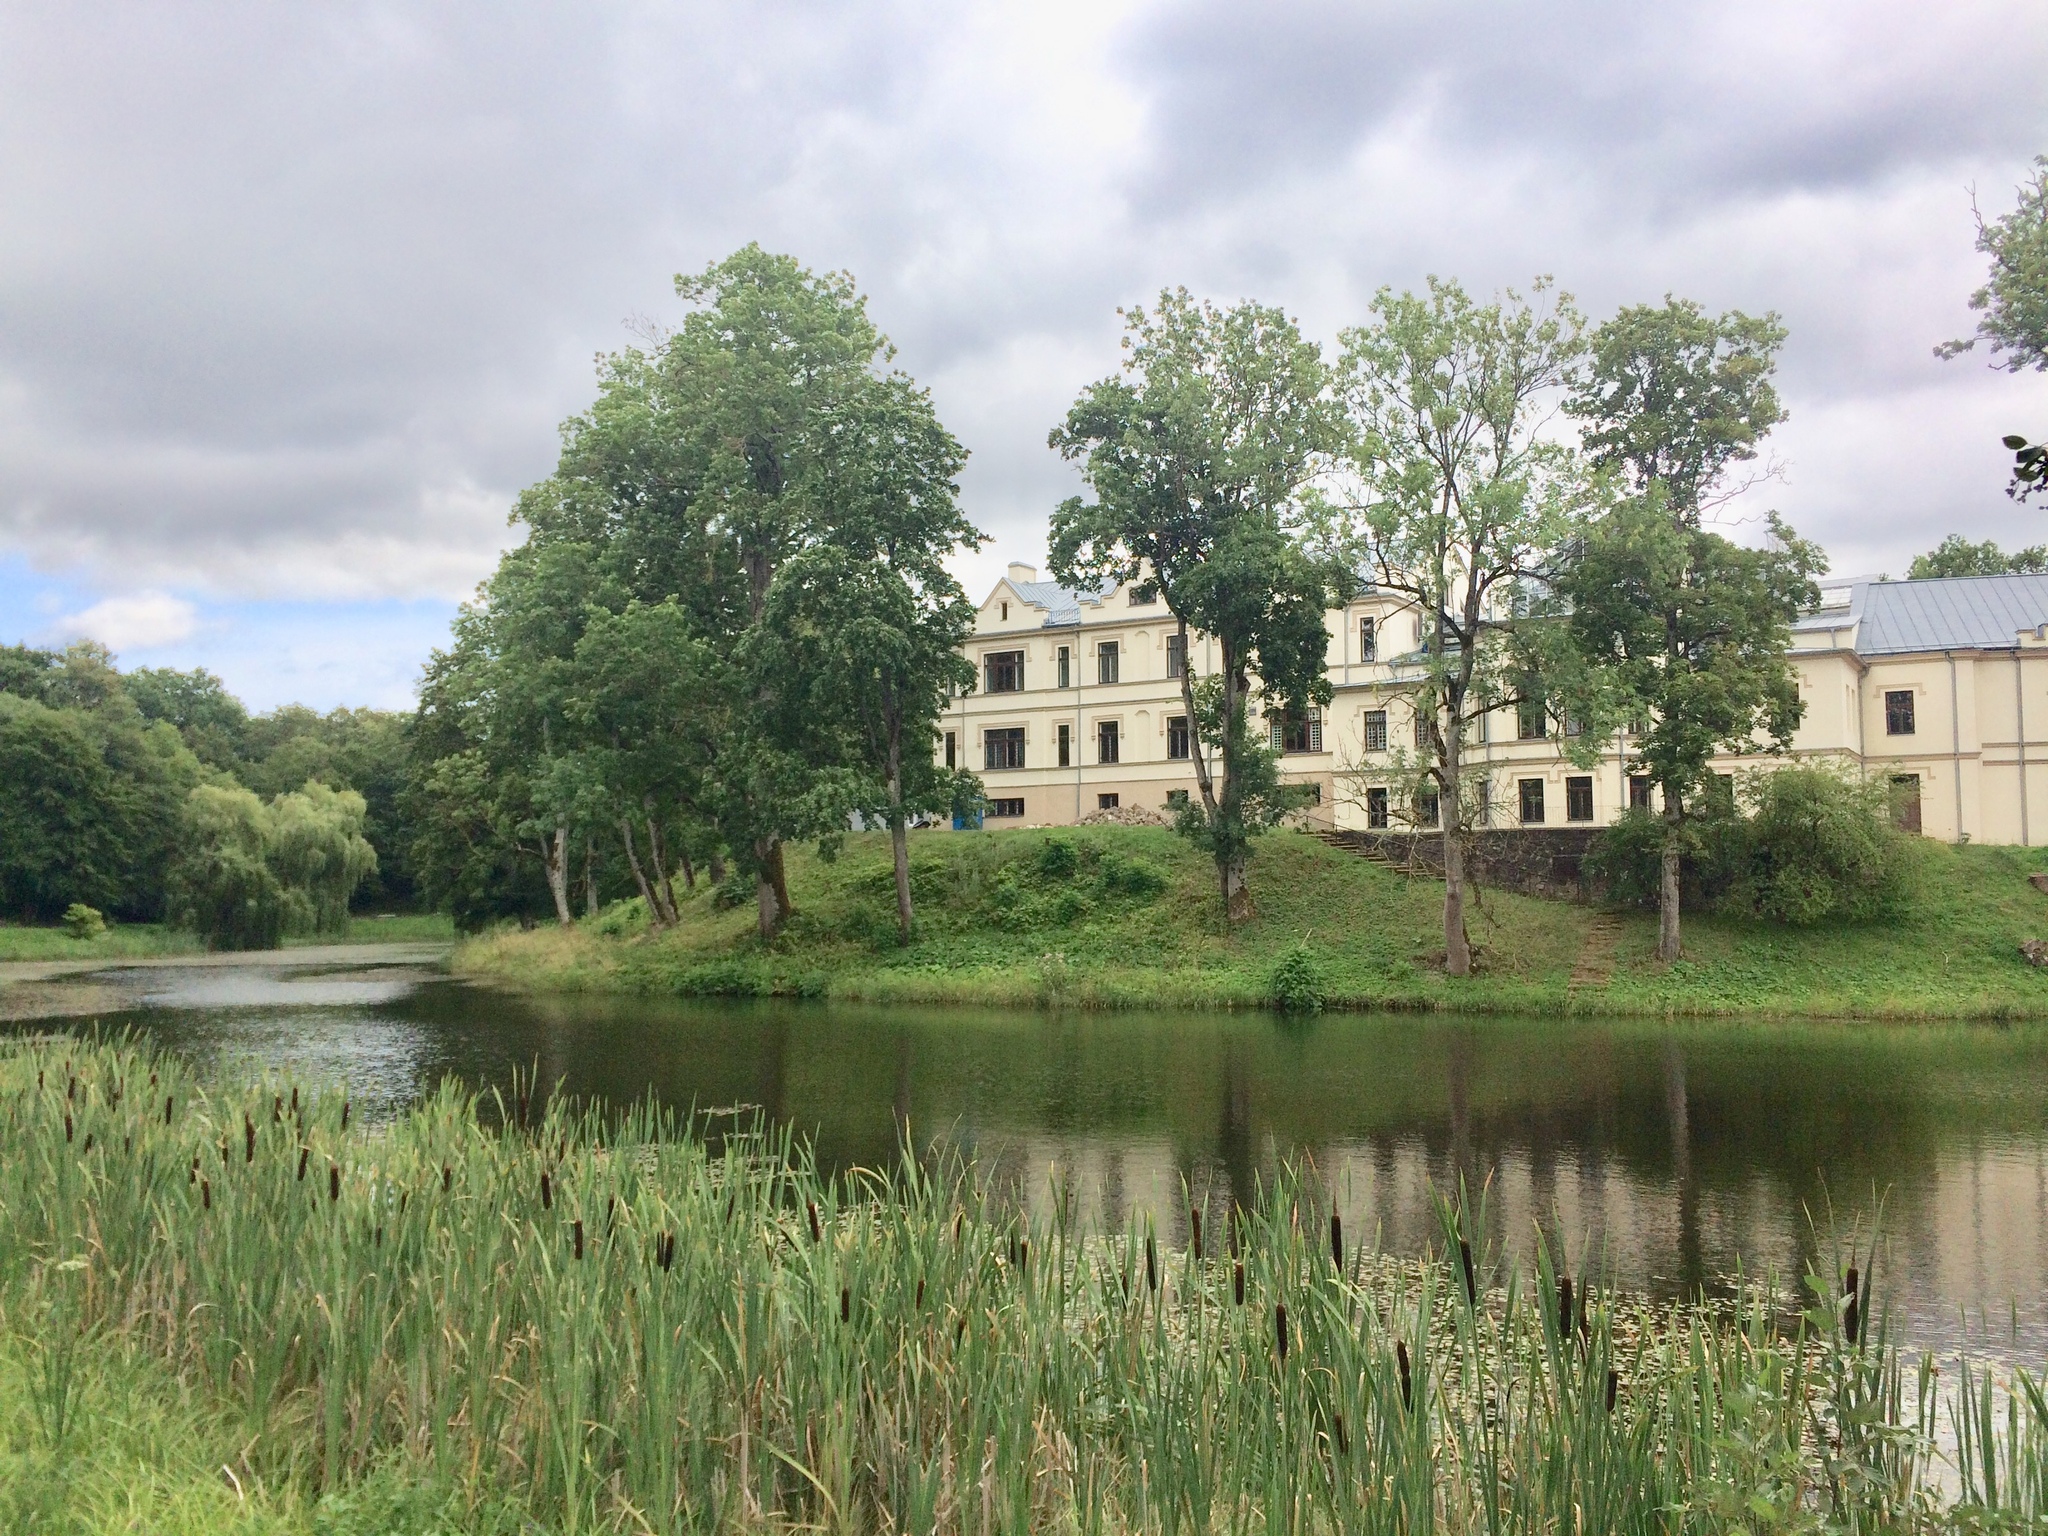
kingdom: Plantae
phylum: Tracheophyta
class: Liliopsida
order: Poales
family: Typhaceae
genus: Typha
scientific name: Typha latifolia
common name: Broadleaf cattail
